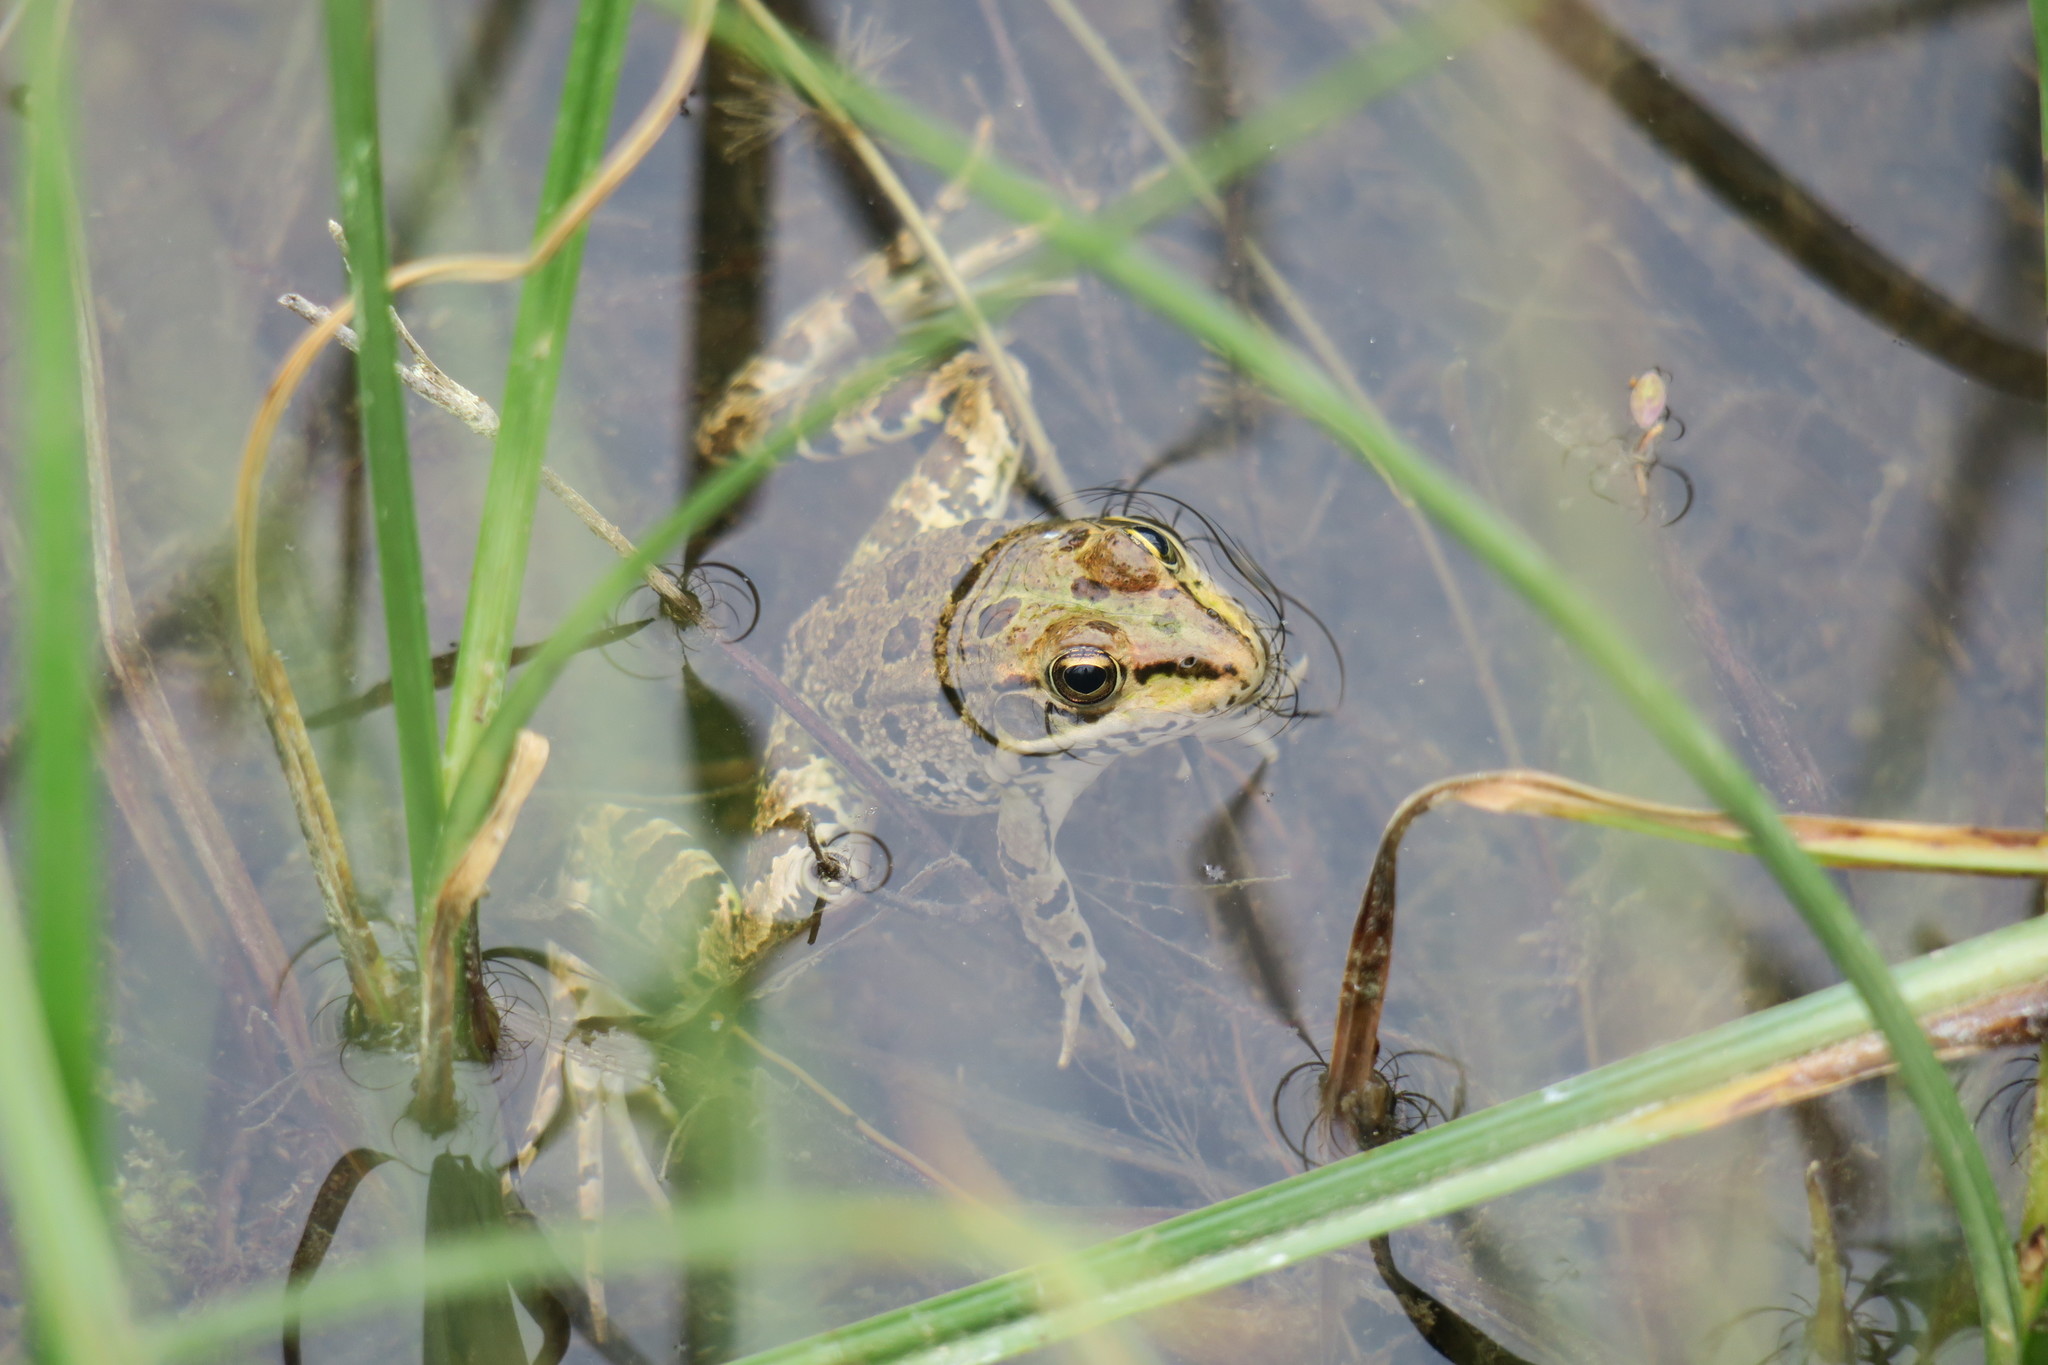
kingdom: Animalia
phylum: Chordata
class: Amphibia
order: Anura
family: Ranidae
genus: Pelophylax
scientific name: Pelophylax perezi
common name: Perez's frog
